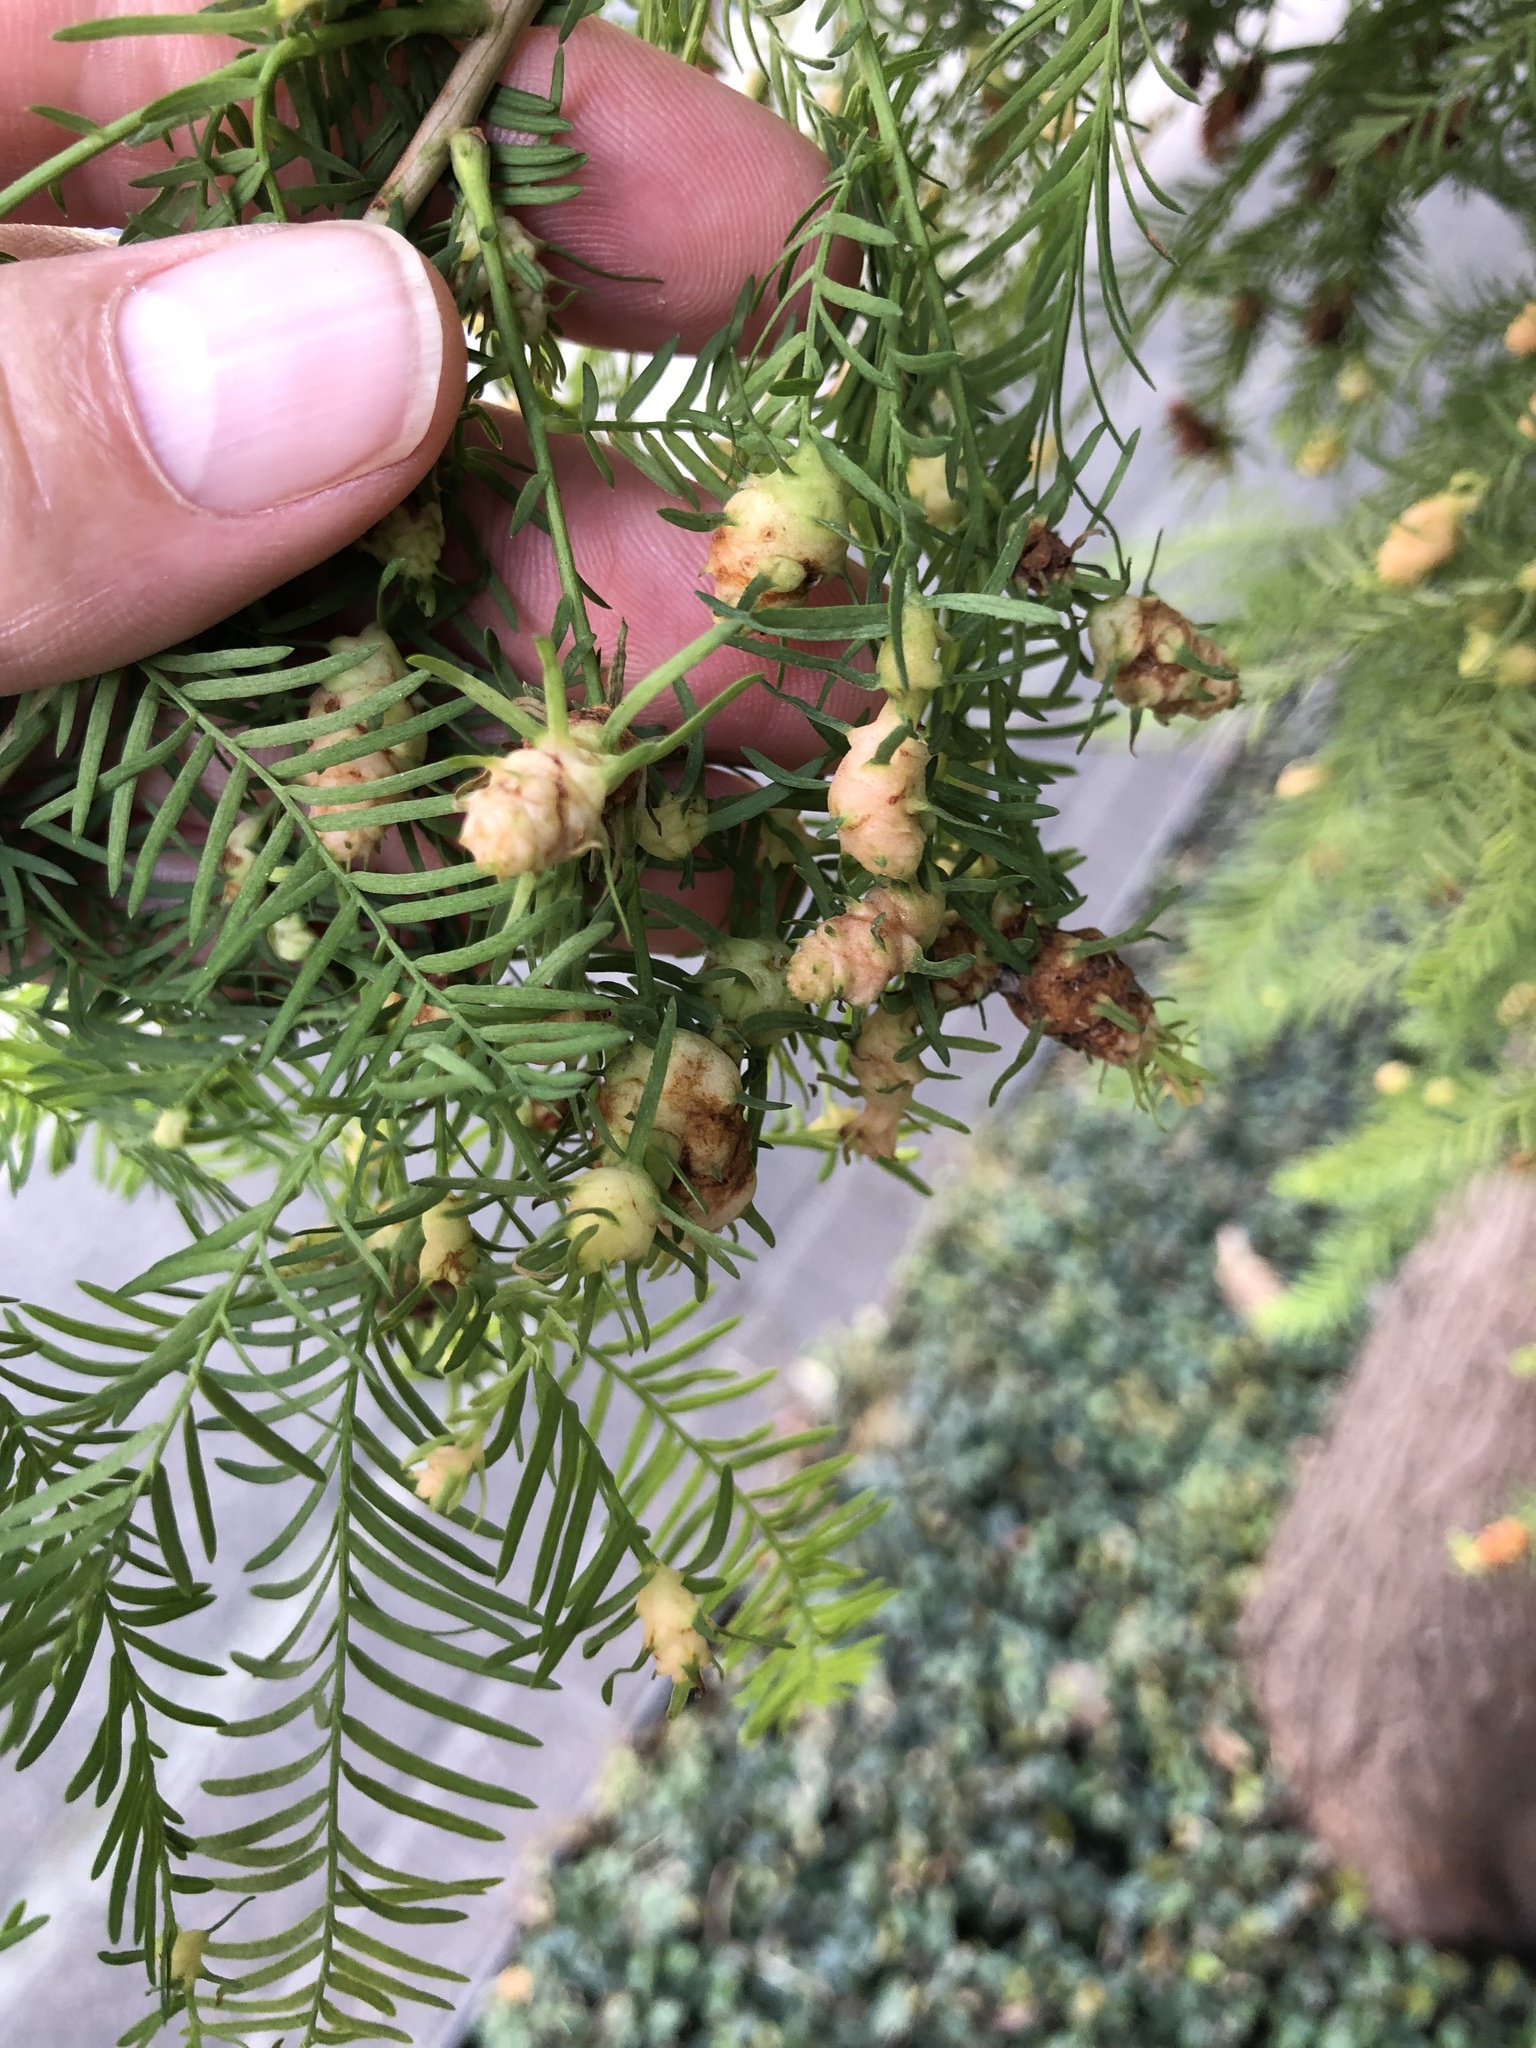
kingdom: Animalia
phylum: Arthropoda
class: Insecta
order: Diptera
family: Cecidomyiidae
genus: Taxodiomyia
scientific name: Taxodiomyia cupressiananassa
